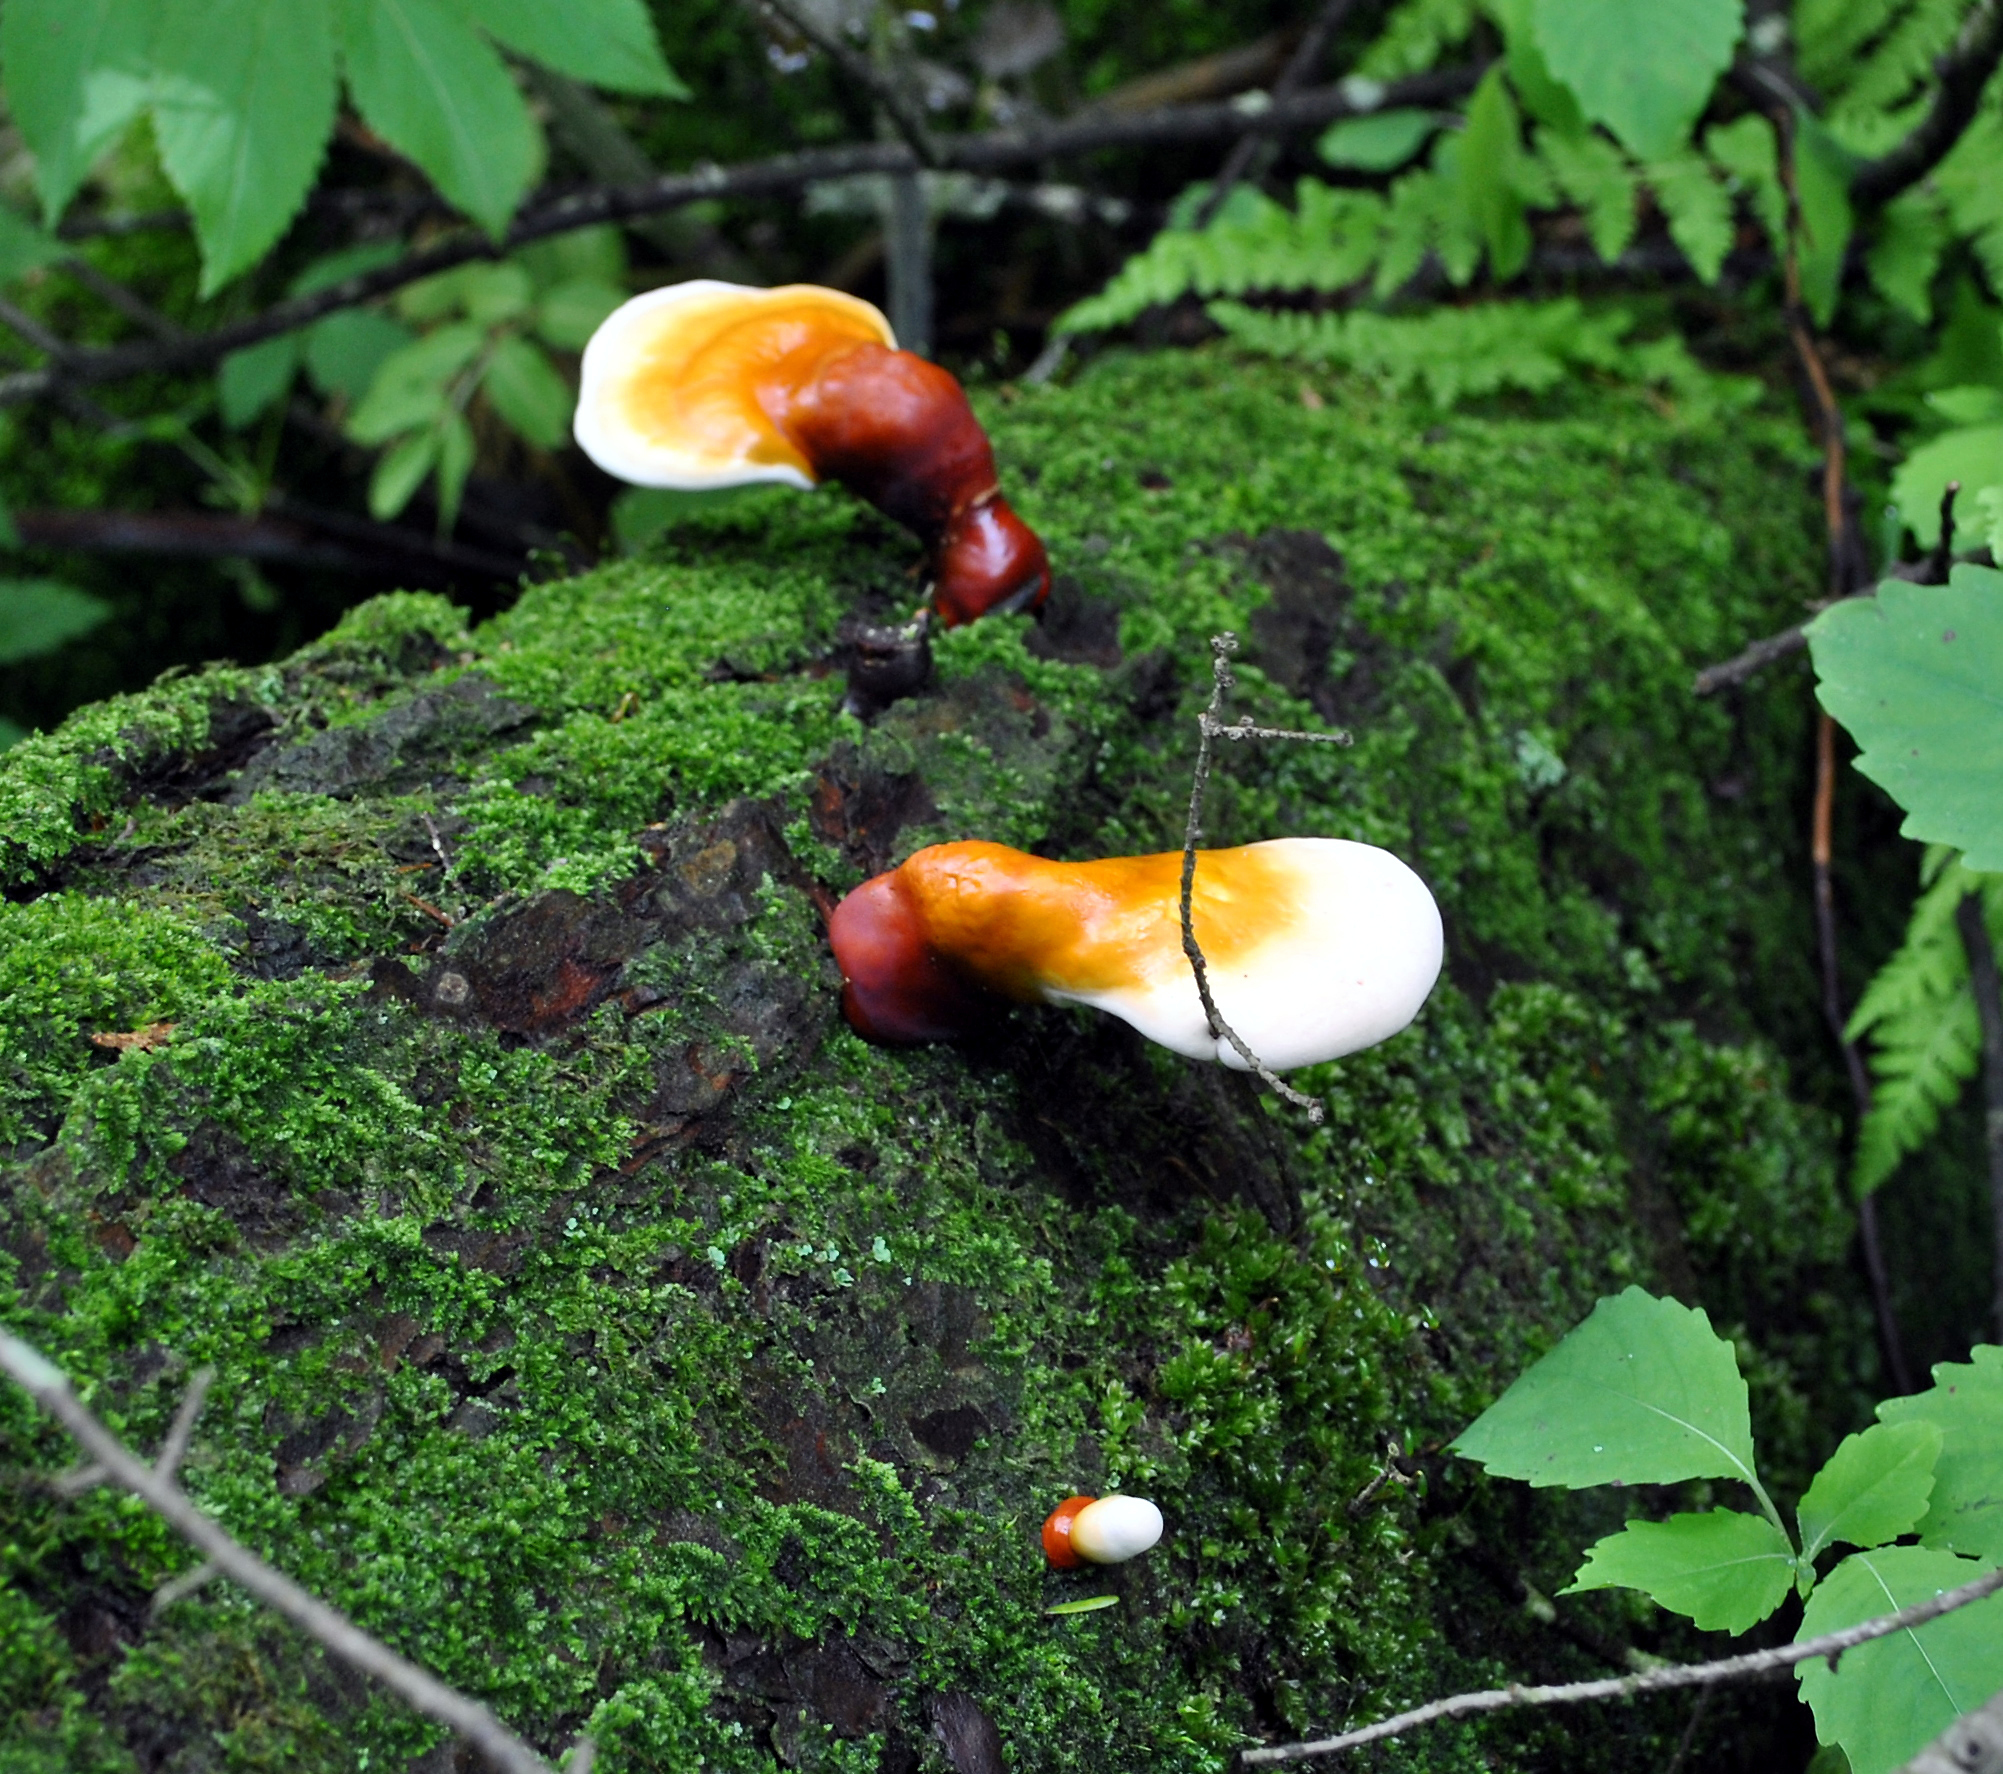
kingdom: Fungi
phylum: Basidiomycota
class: Agaricomycetes
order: Polyporales
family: Polyporaceae
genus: Ganoderma
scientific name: Ganoderma tsugae
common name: Hemlock varnish shelf
